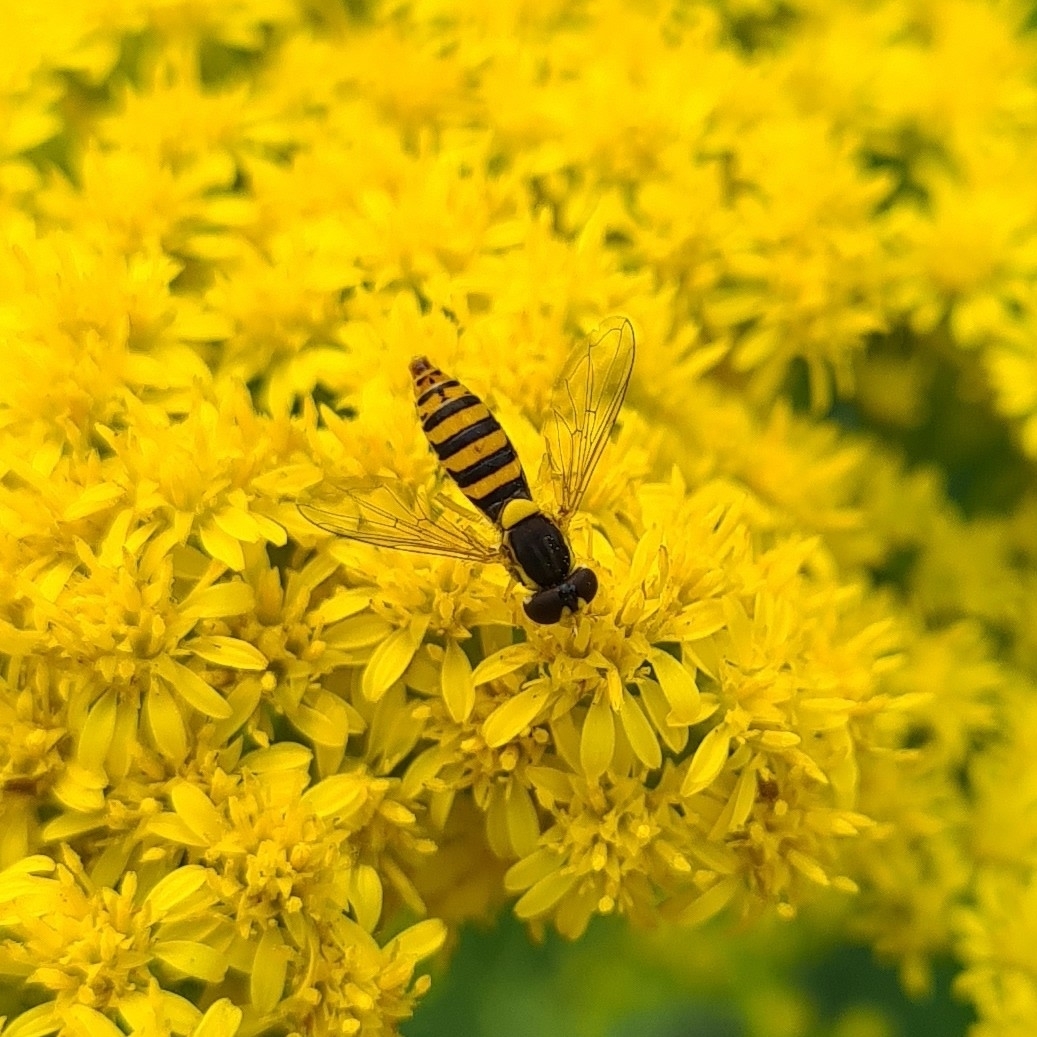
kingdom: Animalia
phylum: Arthropoda
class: Insecta
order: Diptera
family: Syrphidae
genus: Sphaerophoria
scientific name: Sphaerophoria
